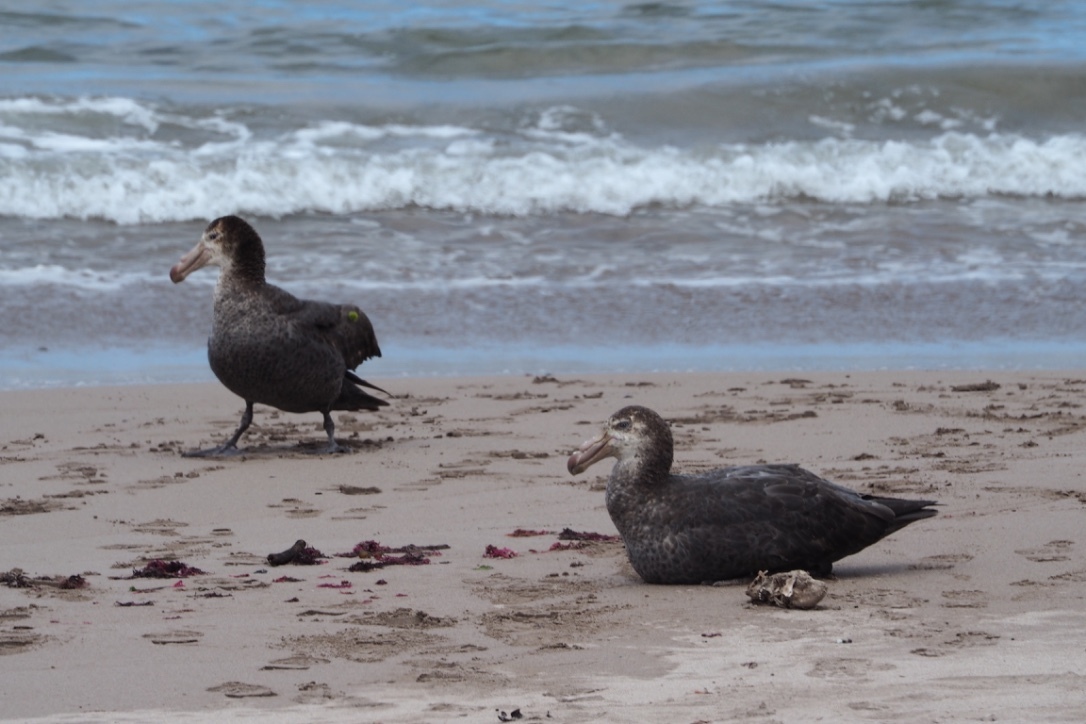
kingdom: Animalia
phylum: Chordata
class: Aves
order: Procellariiformes
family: Procellariidae
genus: Macronectes
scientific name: Macronectes halli
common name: Northern giant petrel
